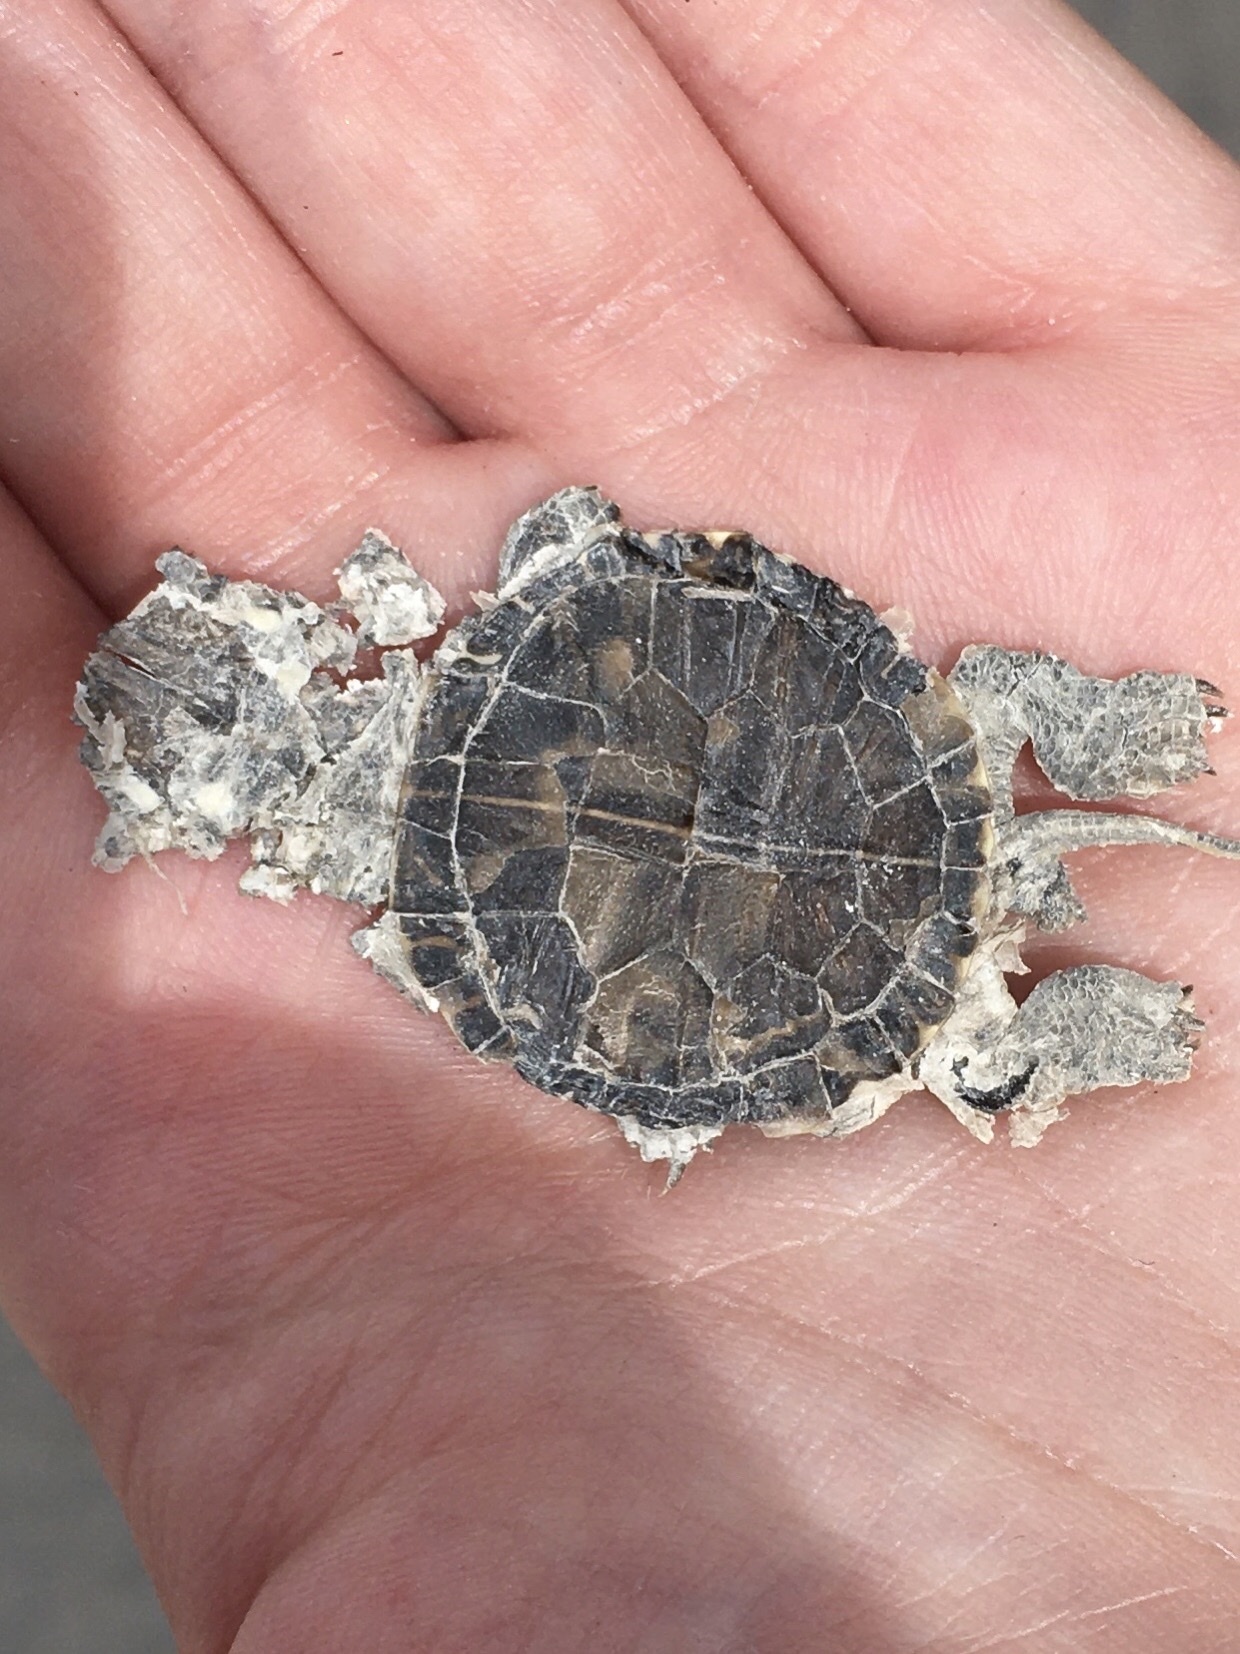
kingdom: Animalia
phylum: Chordata
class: Testudines
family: Emydidae
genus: Chrysemys
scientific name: Chrysemys picta
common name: Painted turtle
